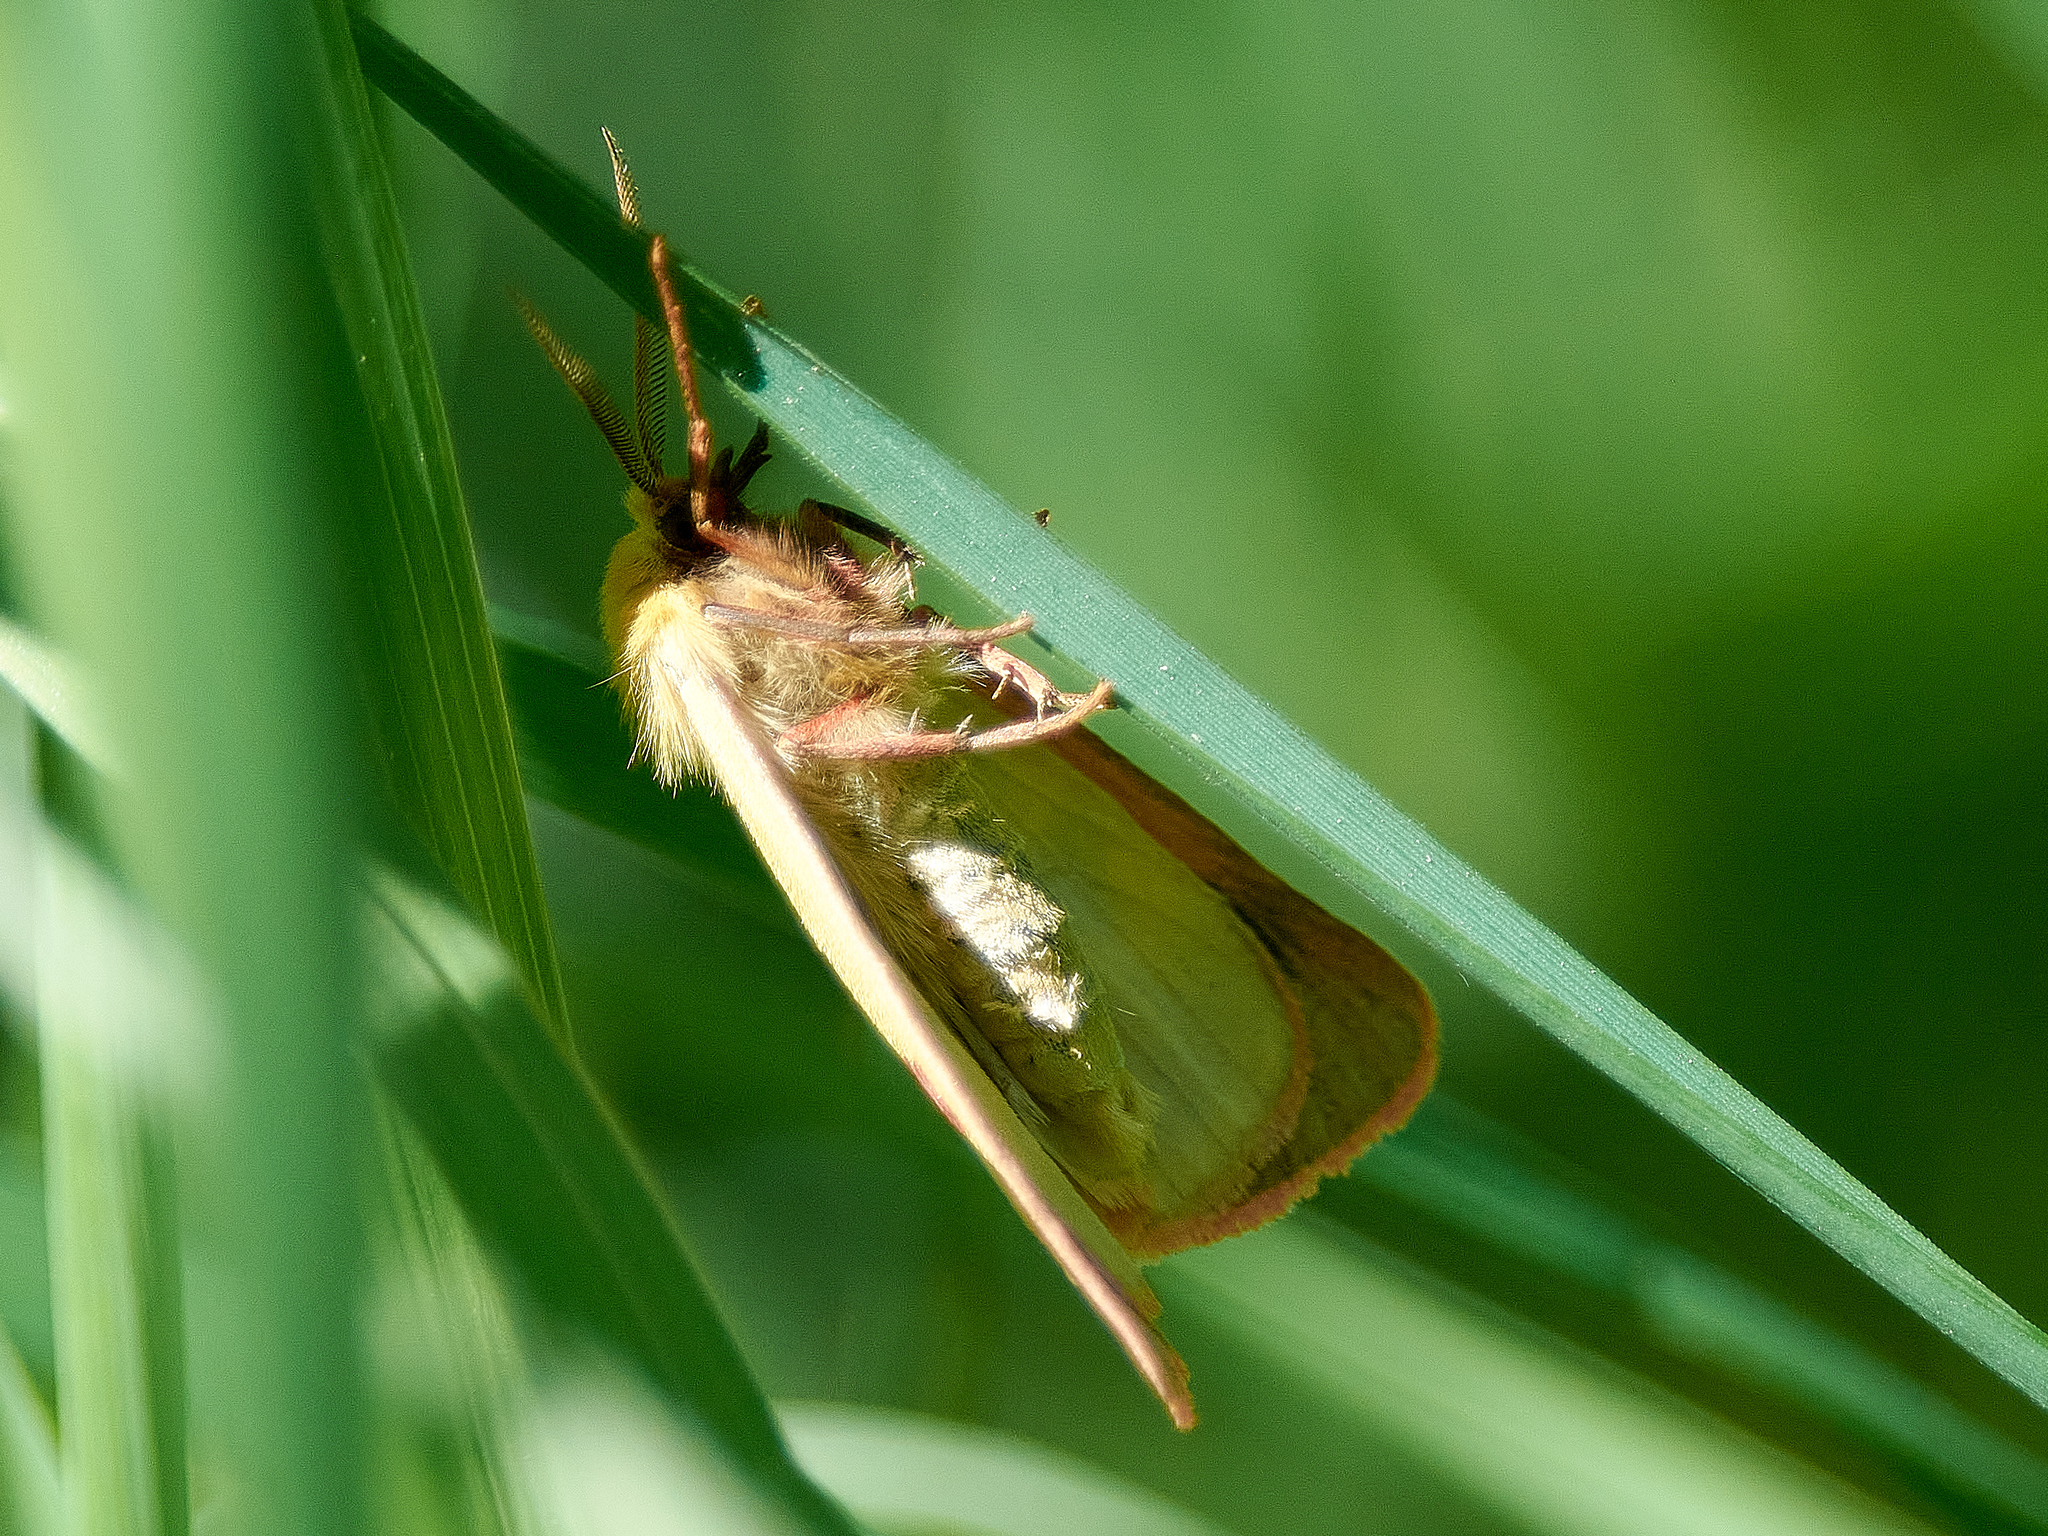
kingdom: Animalia
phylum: Arthropoda
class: Insecta
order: Lepidoptera
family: Erebidae
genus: Diacrisia
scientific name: Diacrisia sannio
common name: Clouded buff
